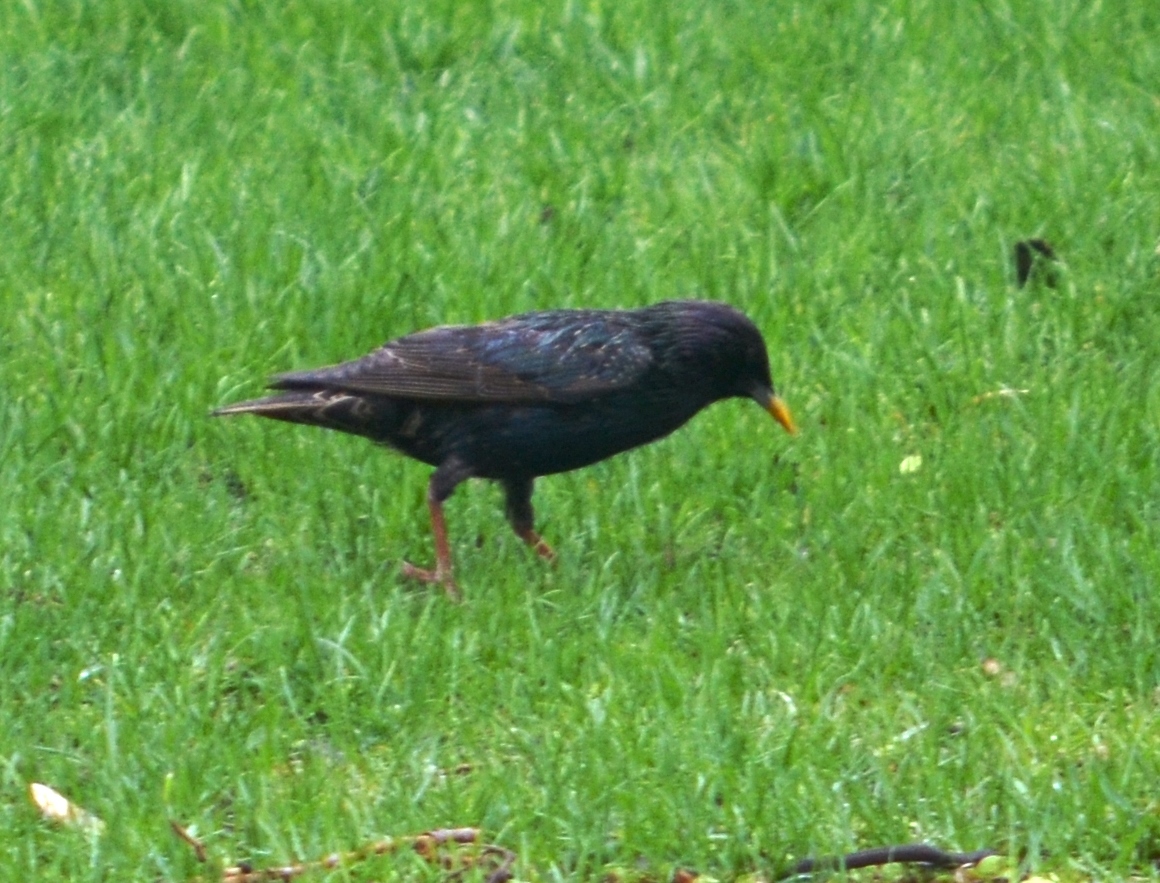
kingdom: Animalia
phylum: Chordata
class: Aves
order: Passeriformes
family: Sturnidae
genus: Sturnus
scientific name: Sturnus vulgaris
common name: Common starling
